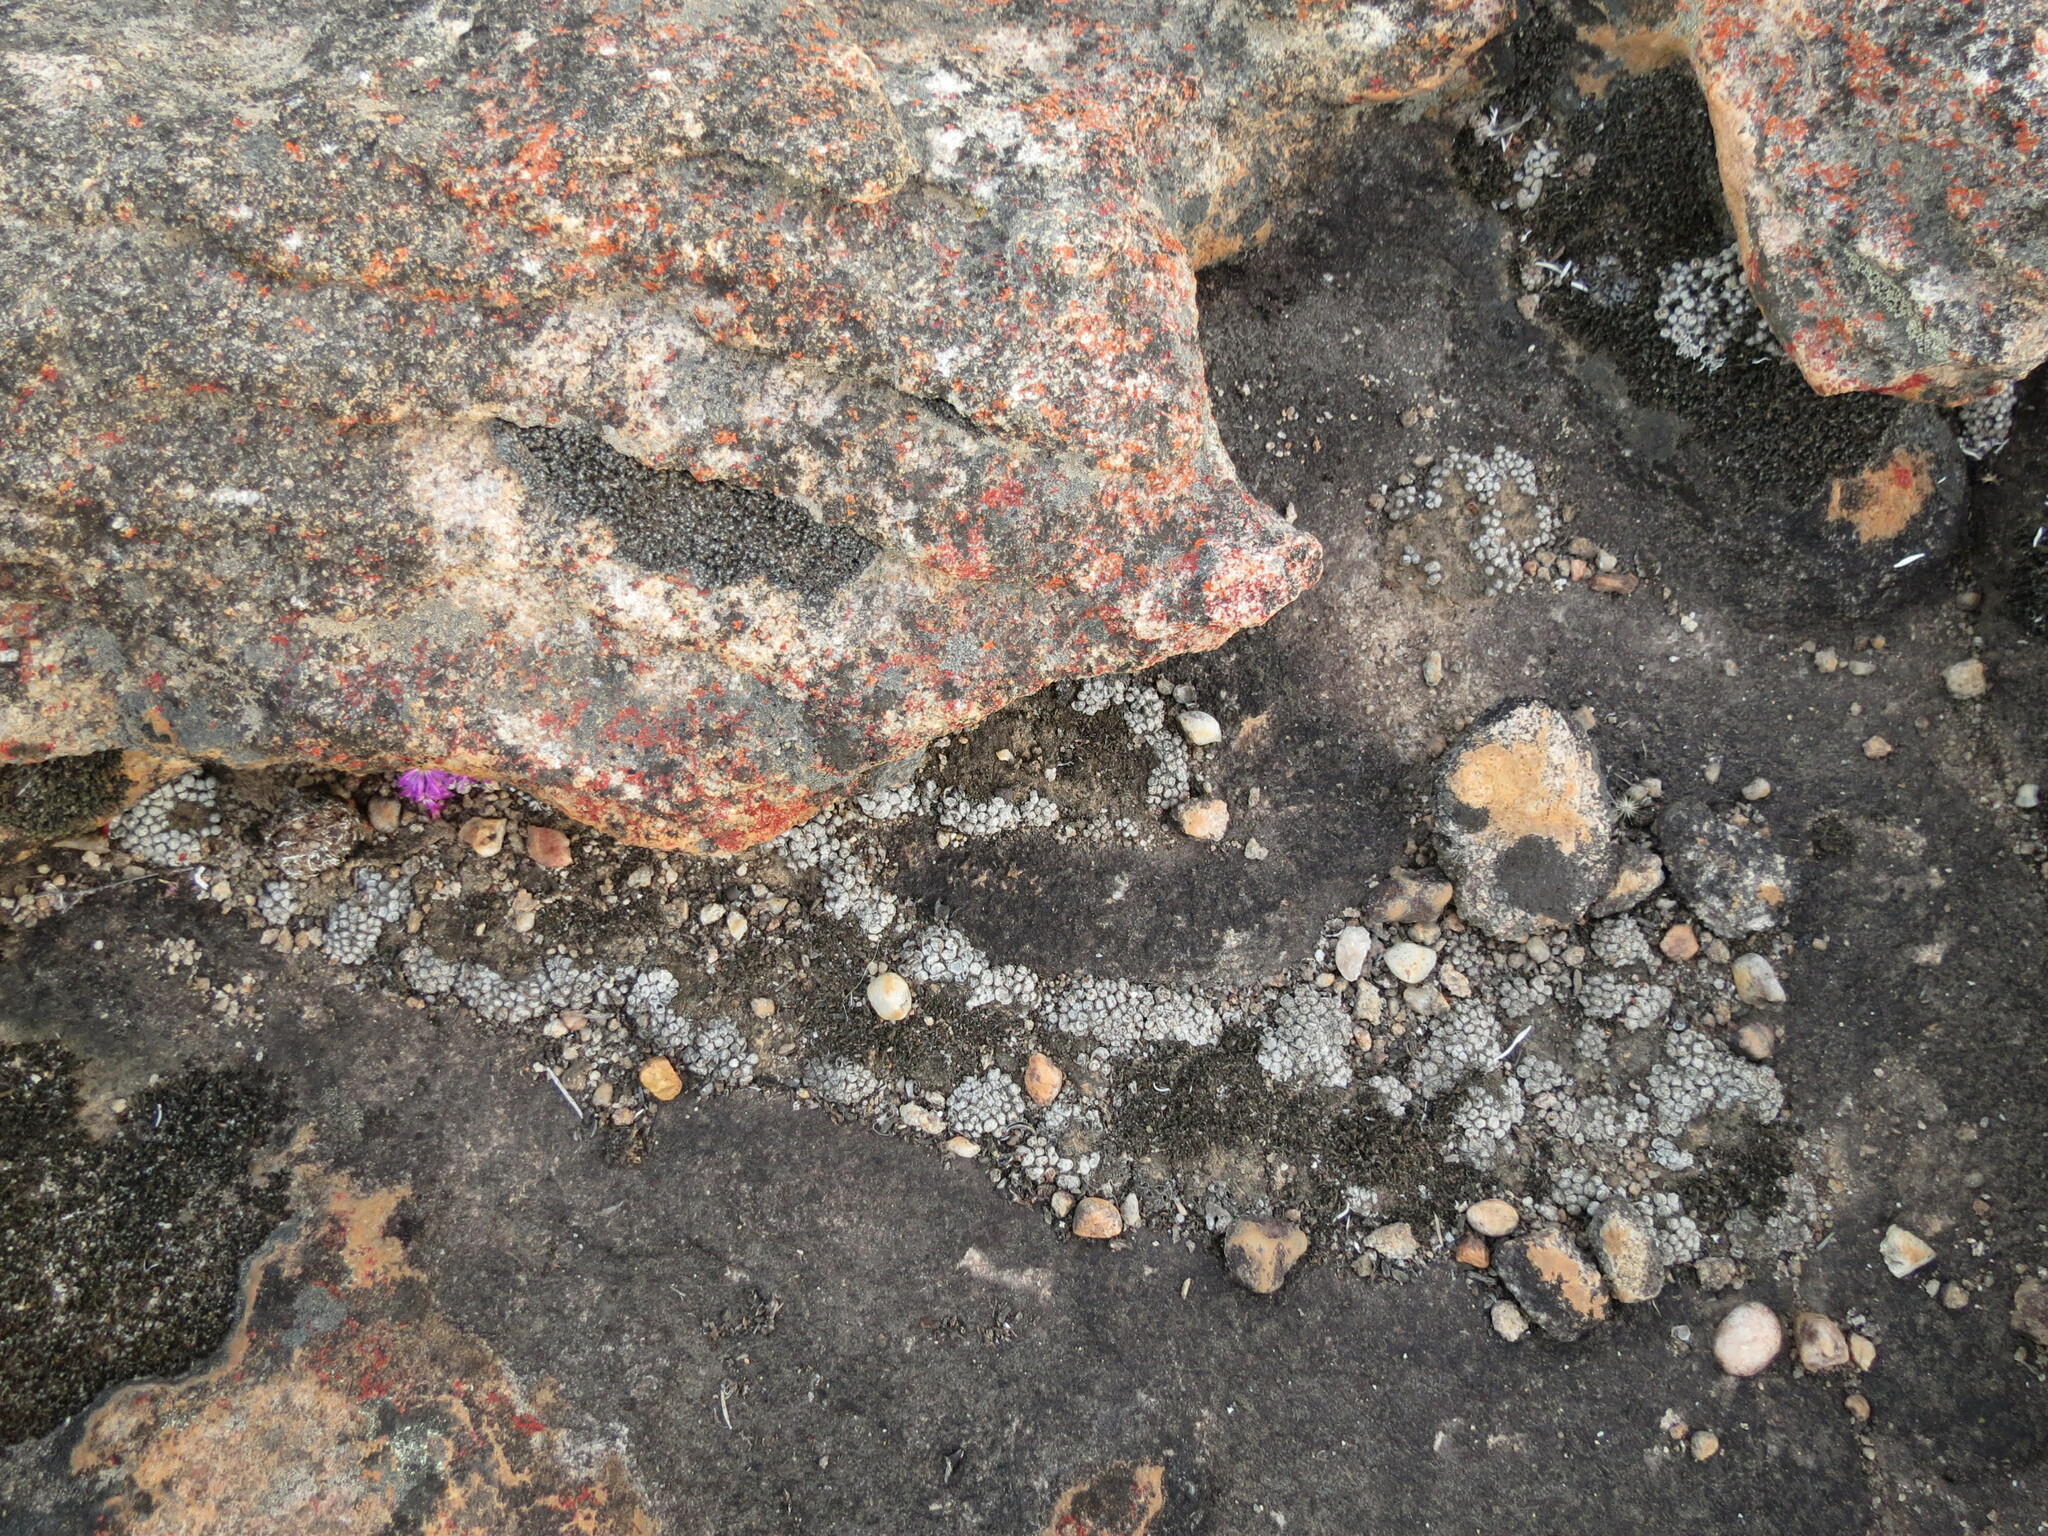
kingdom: Plantae
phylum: Tracheophyta
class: Magnoliopsida
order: Caryophyllales
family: Aizoaceae
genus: Conophytum
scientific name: Conophytum minusculum
